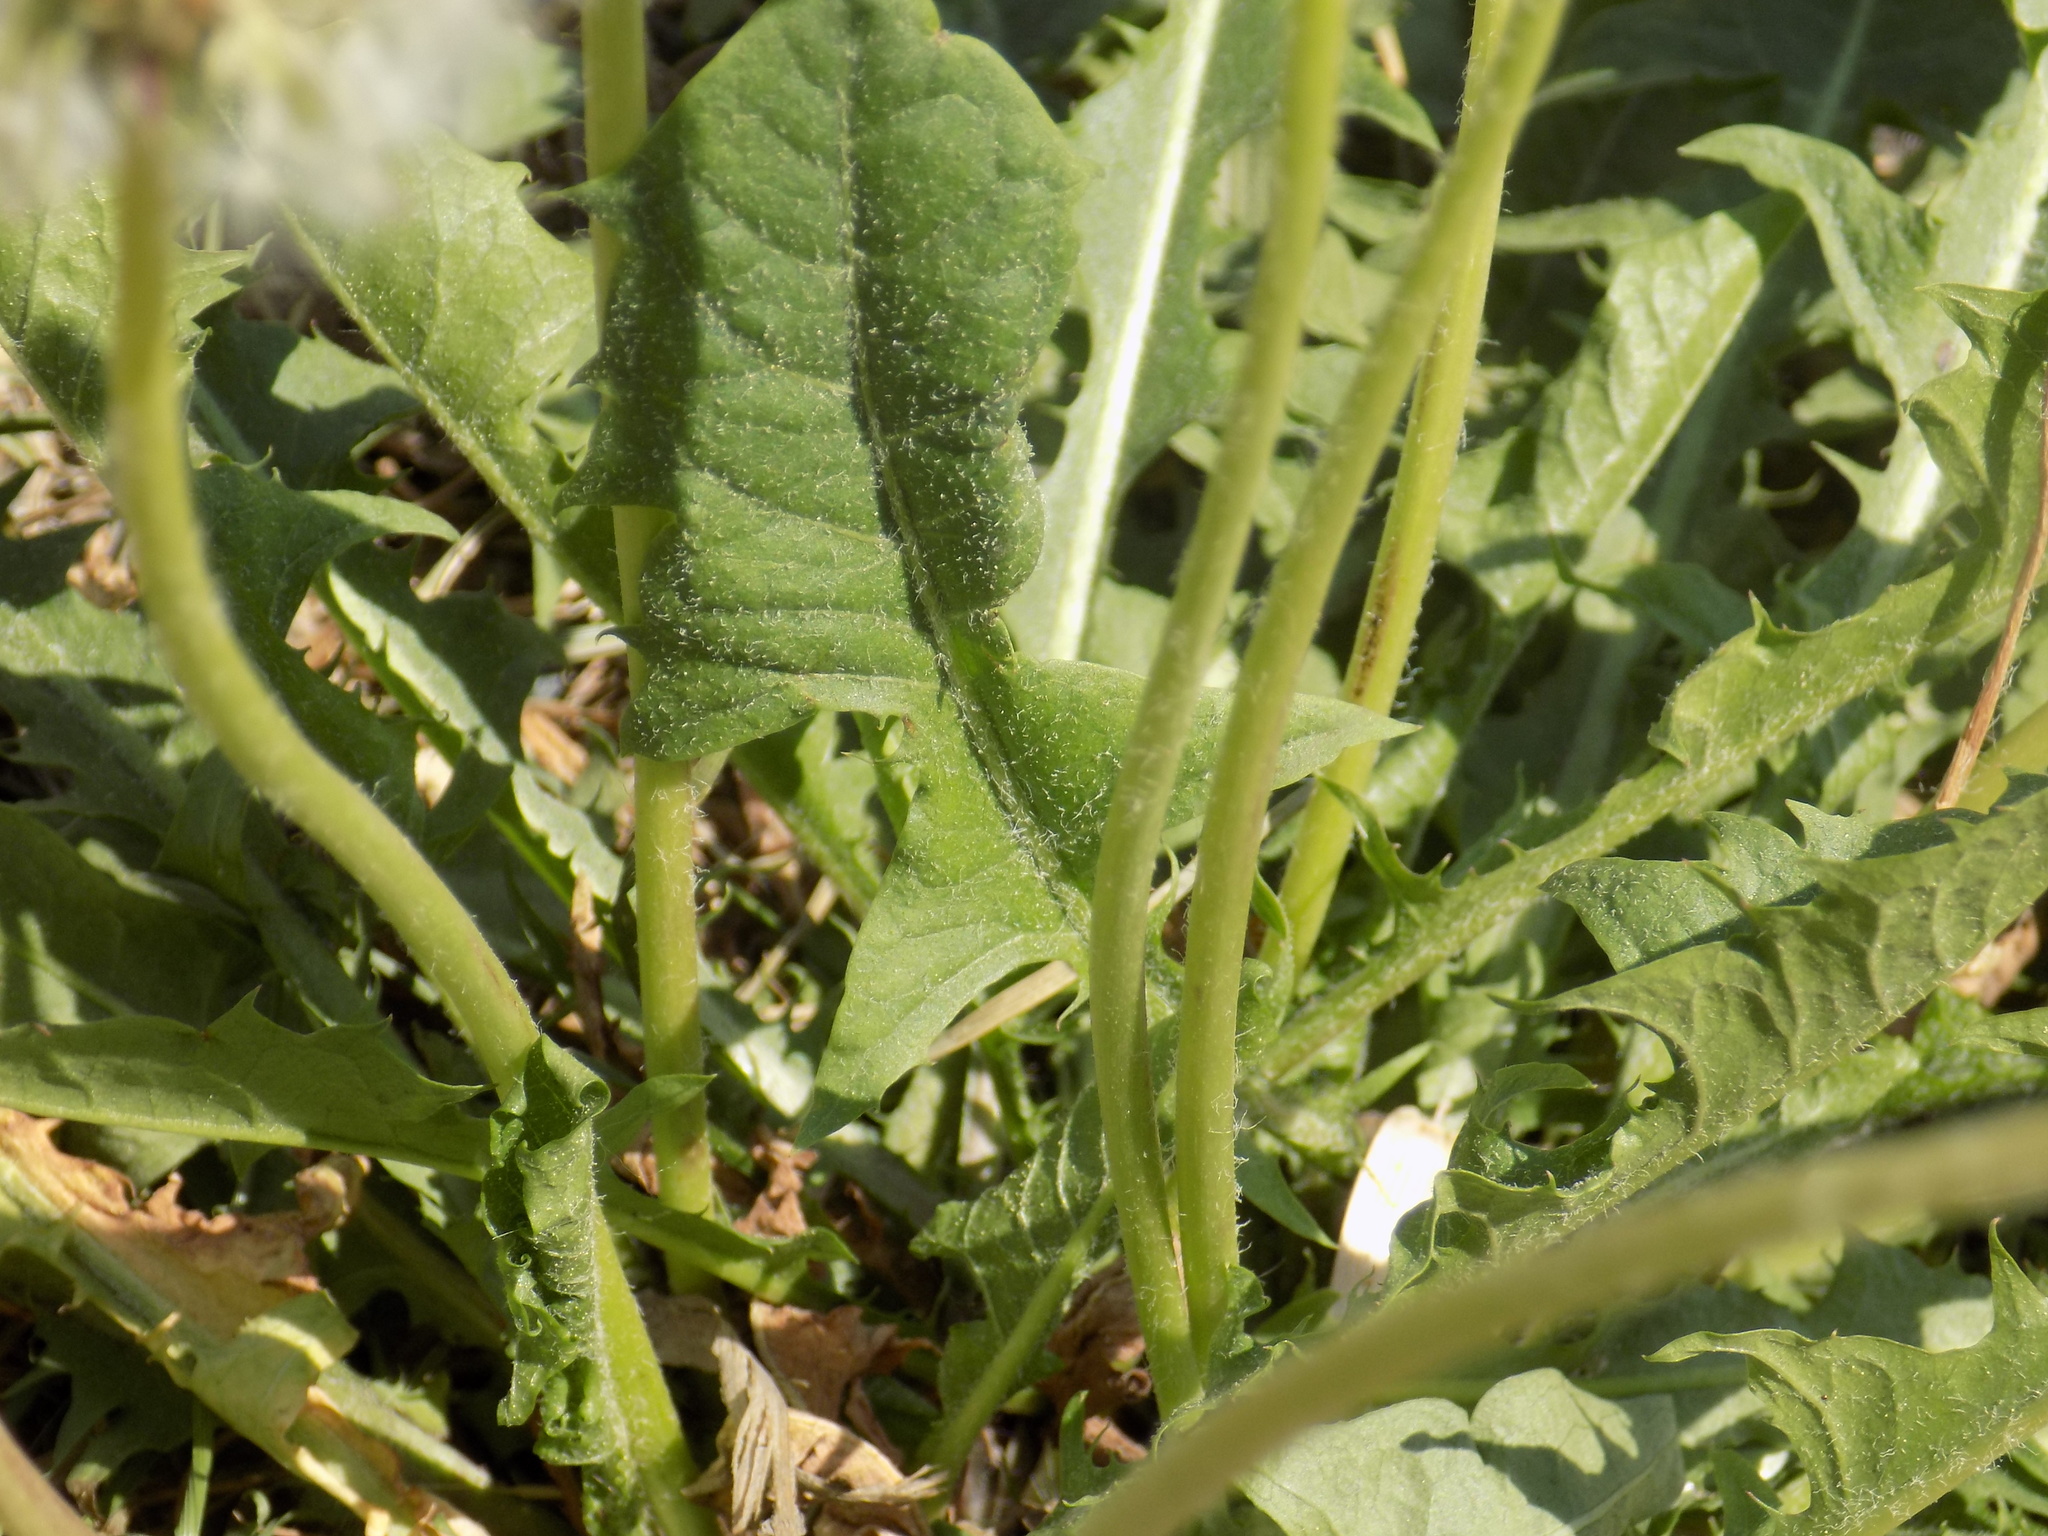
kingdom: Plantae
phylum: Tracheophyta
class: Magnoliopsida
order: Asterales
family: Asteraceae
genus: Taraxacum
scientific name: Taraxacum officinale
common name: Common dandelion
